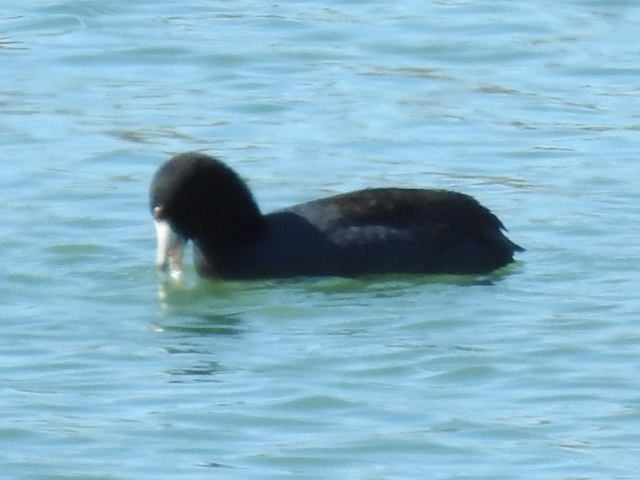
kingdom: Animalia
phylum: Chordata
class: Aves
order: Gruiformes
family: Rallidae
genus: Fulica
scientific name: Fulica americana
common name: American coot
